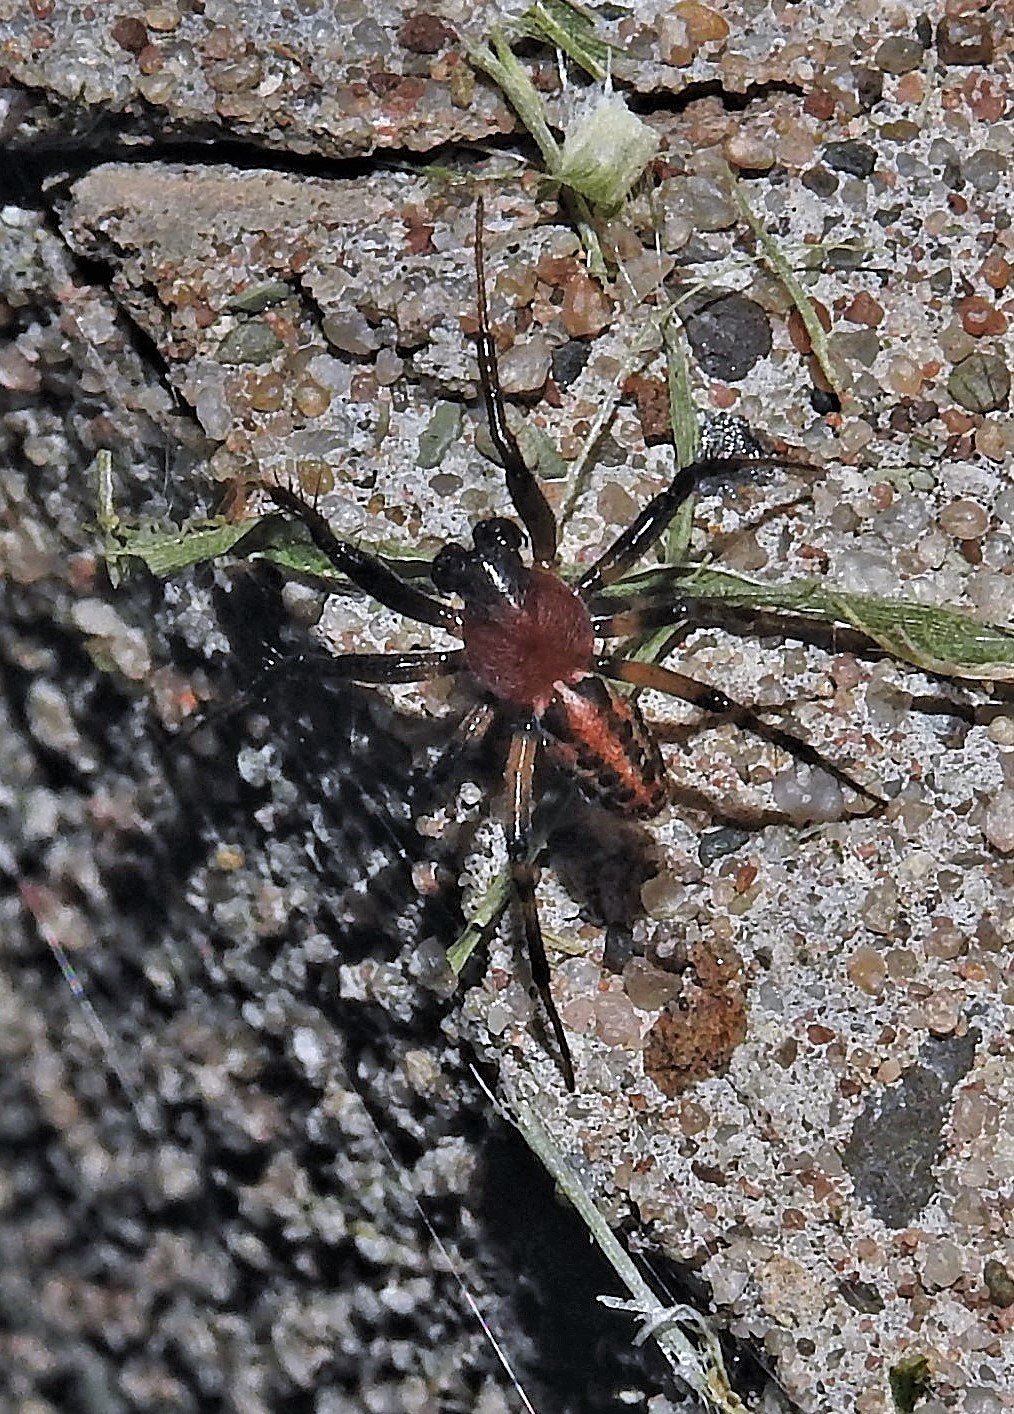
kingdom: Animalia
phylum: Arthropoda
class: Arachnida
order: Araneae
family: Araneidae
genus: Alpaida
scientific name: Alpaida versicolor
